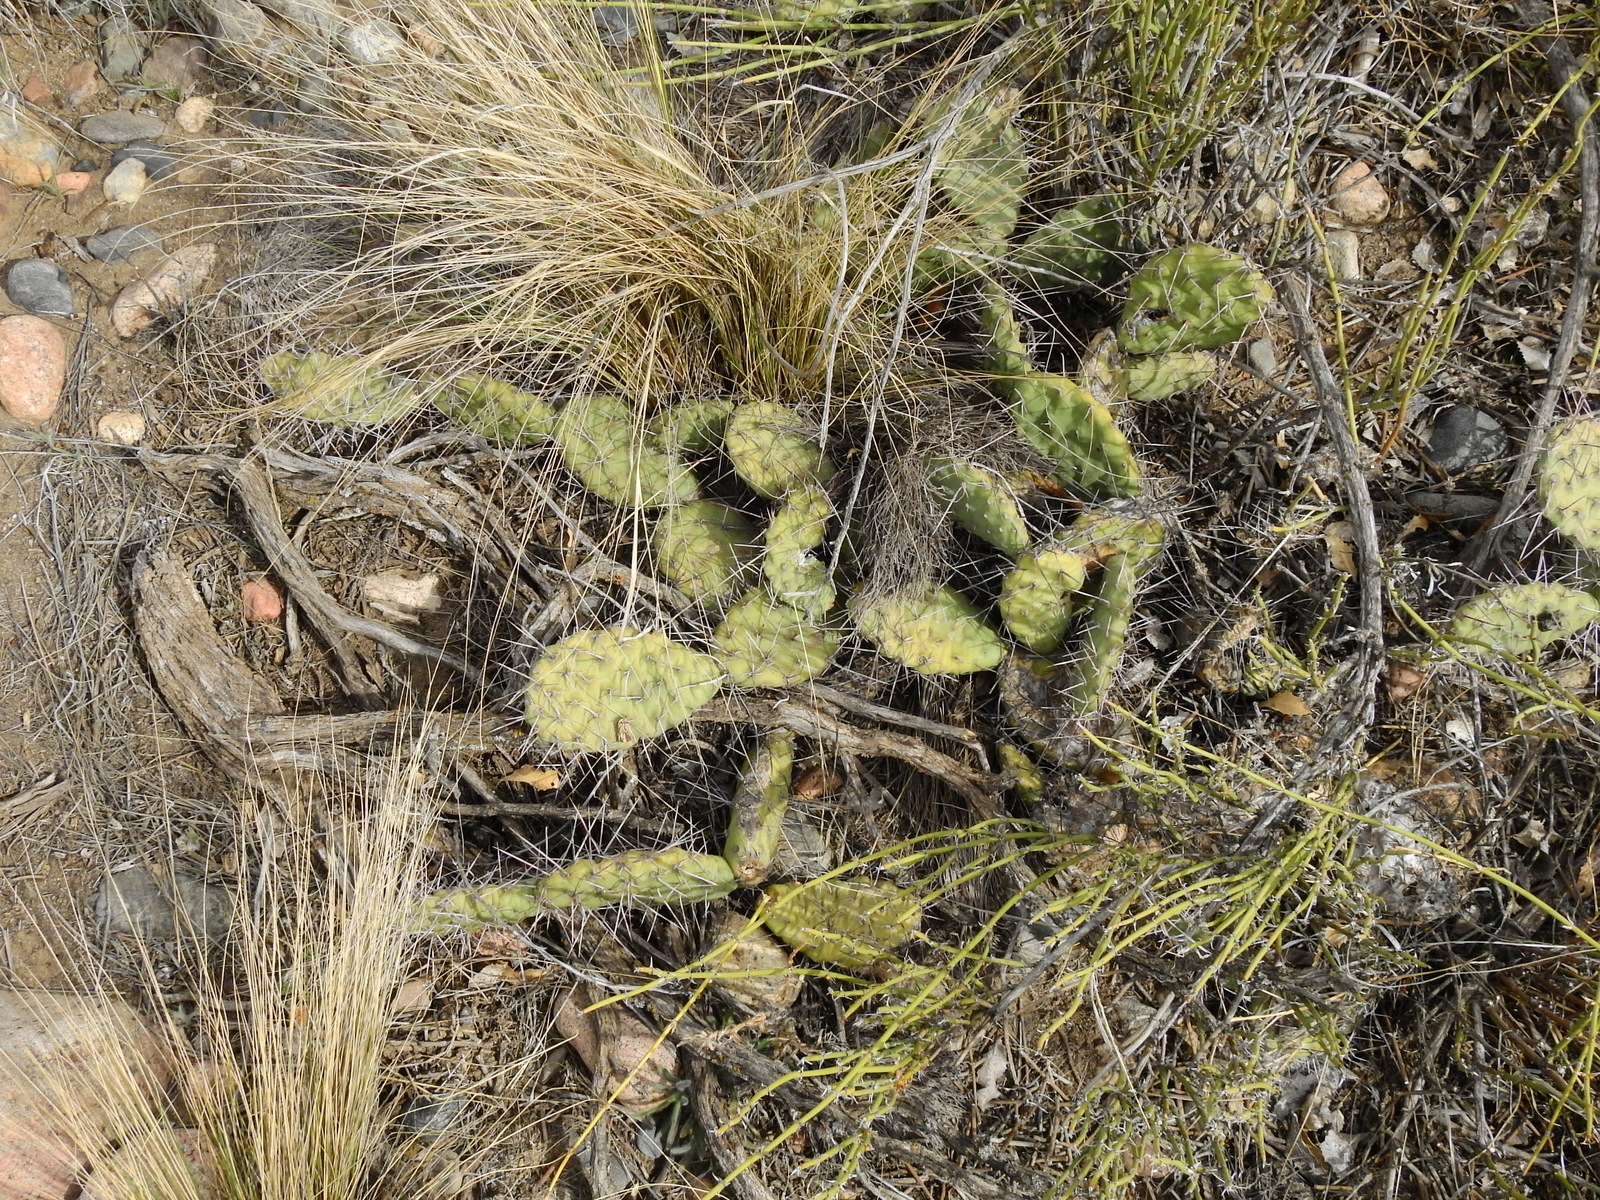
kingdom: Plantae
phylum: Tracheophyta
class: Magnoliopsida
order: Caryophyllales
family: Cactaceae
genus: Opuntia
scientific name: Opuntia sulphurea
